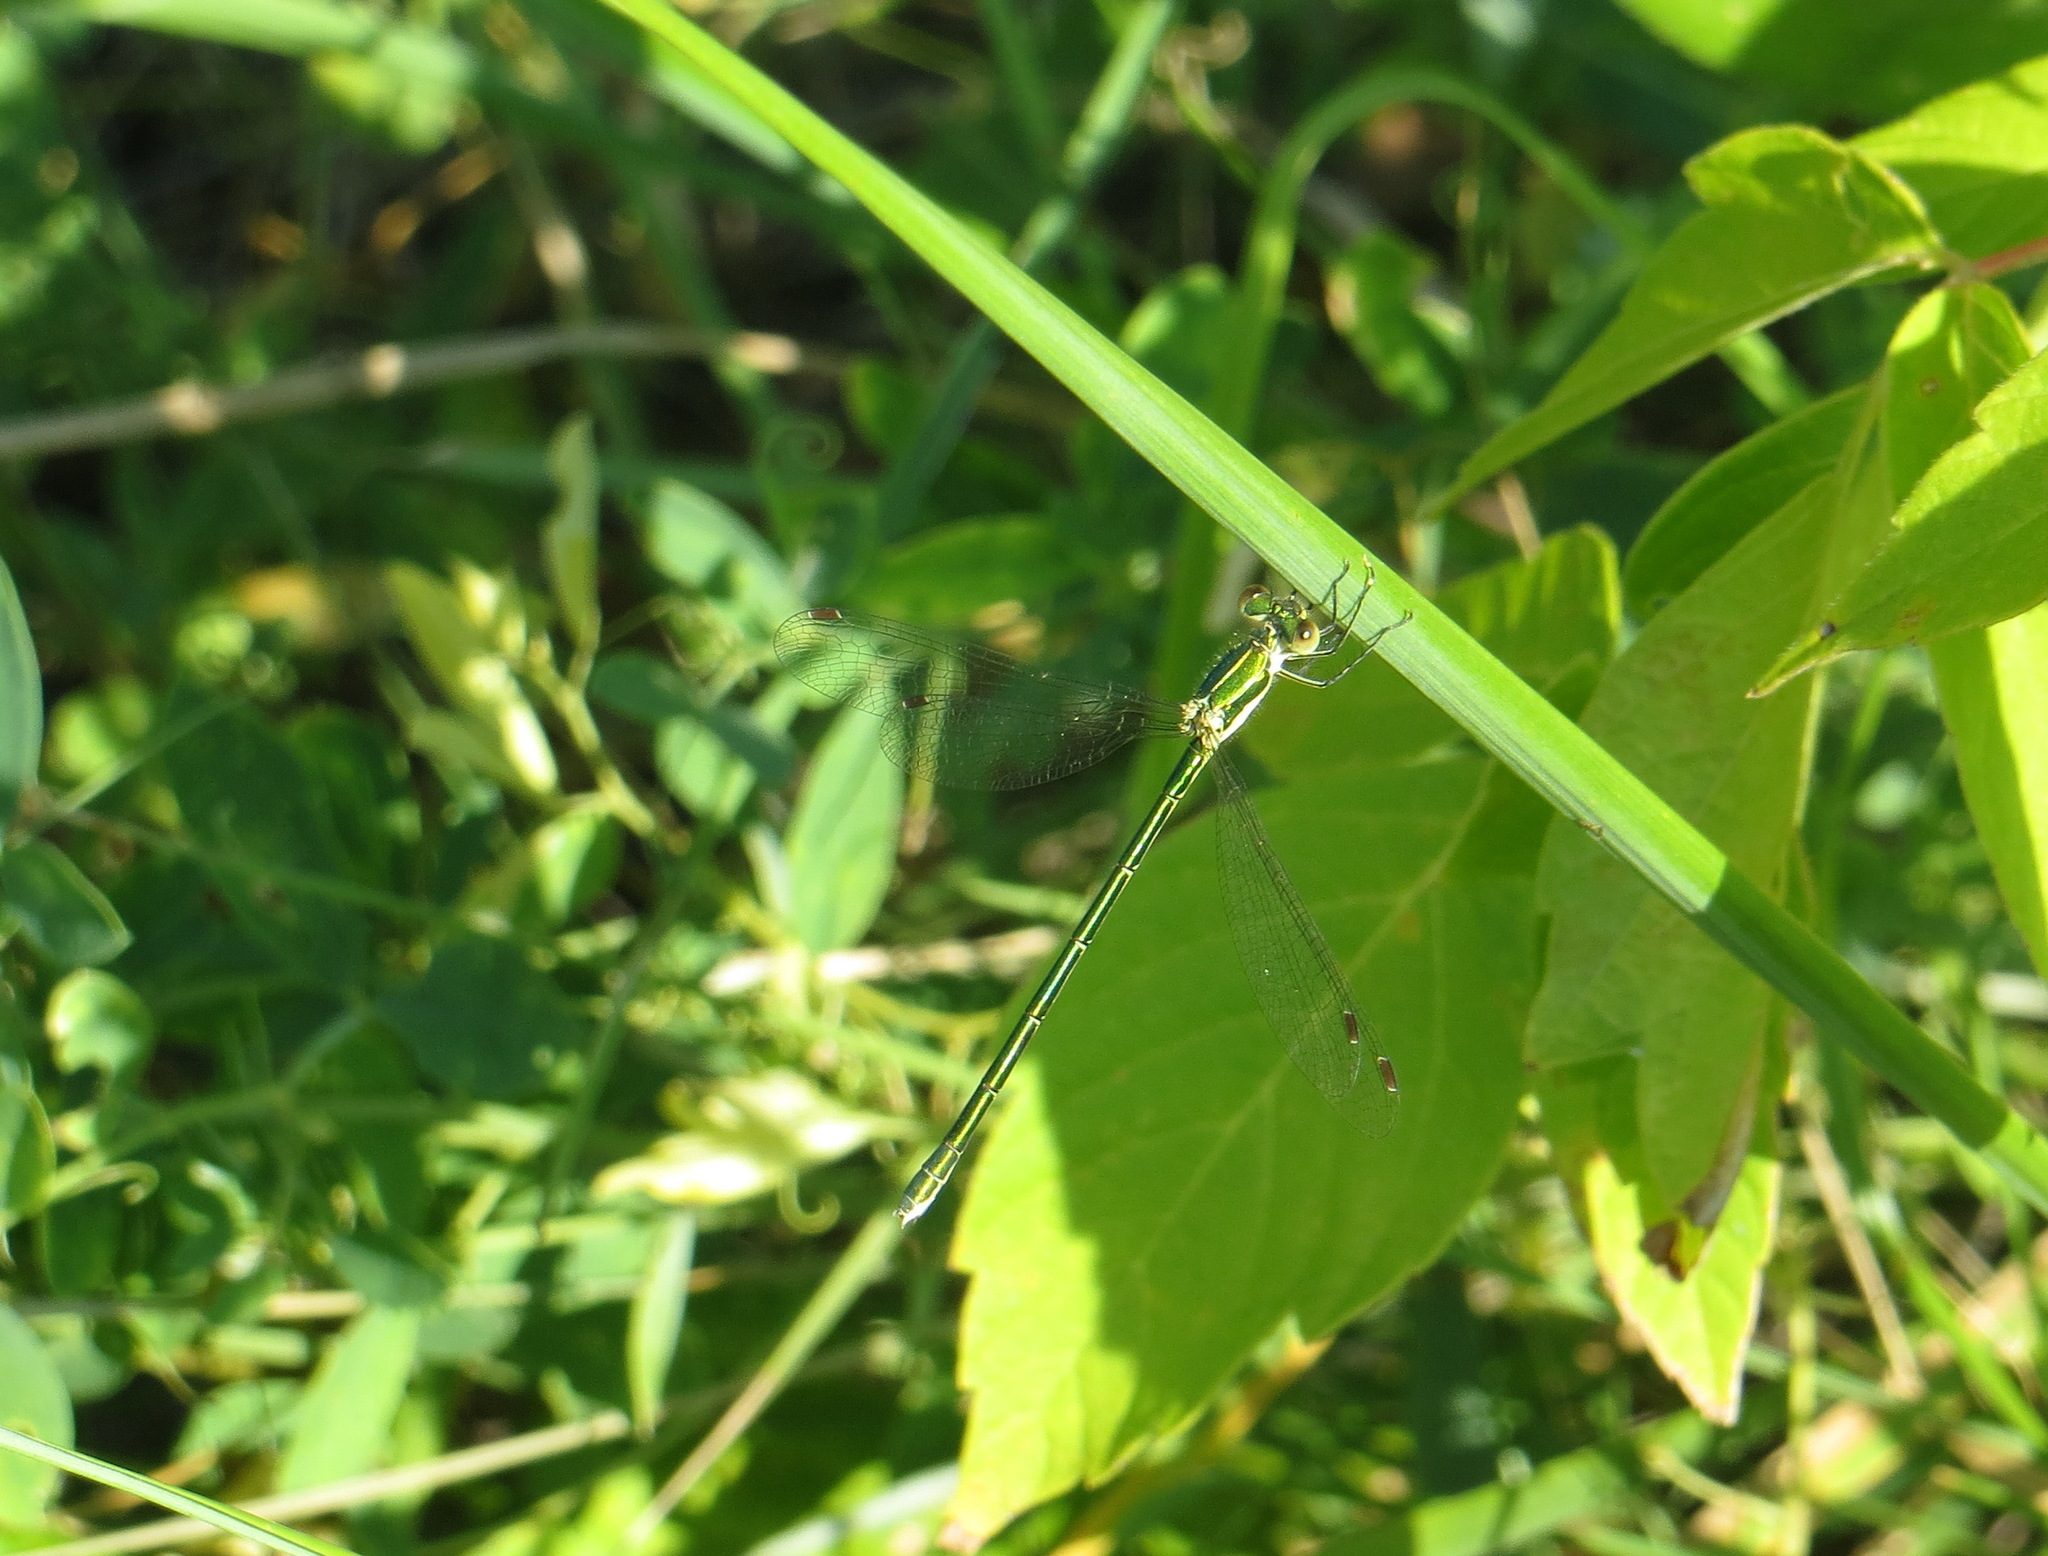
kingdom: Animalia
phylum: Arthropoda
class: Insecta
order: Odonata
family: Lestidae
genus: Lestes
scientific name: Lestes virens
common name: Small emerald spreadwing
